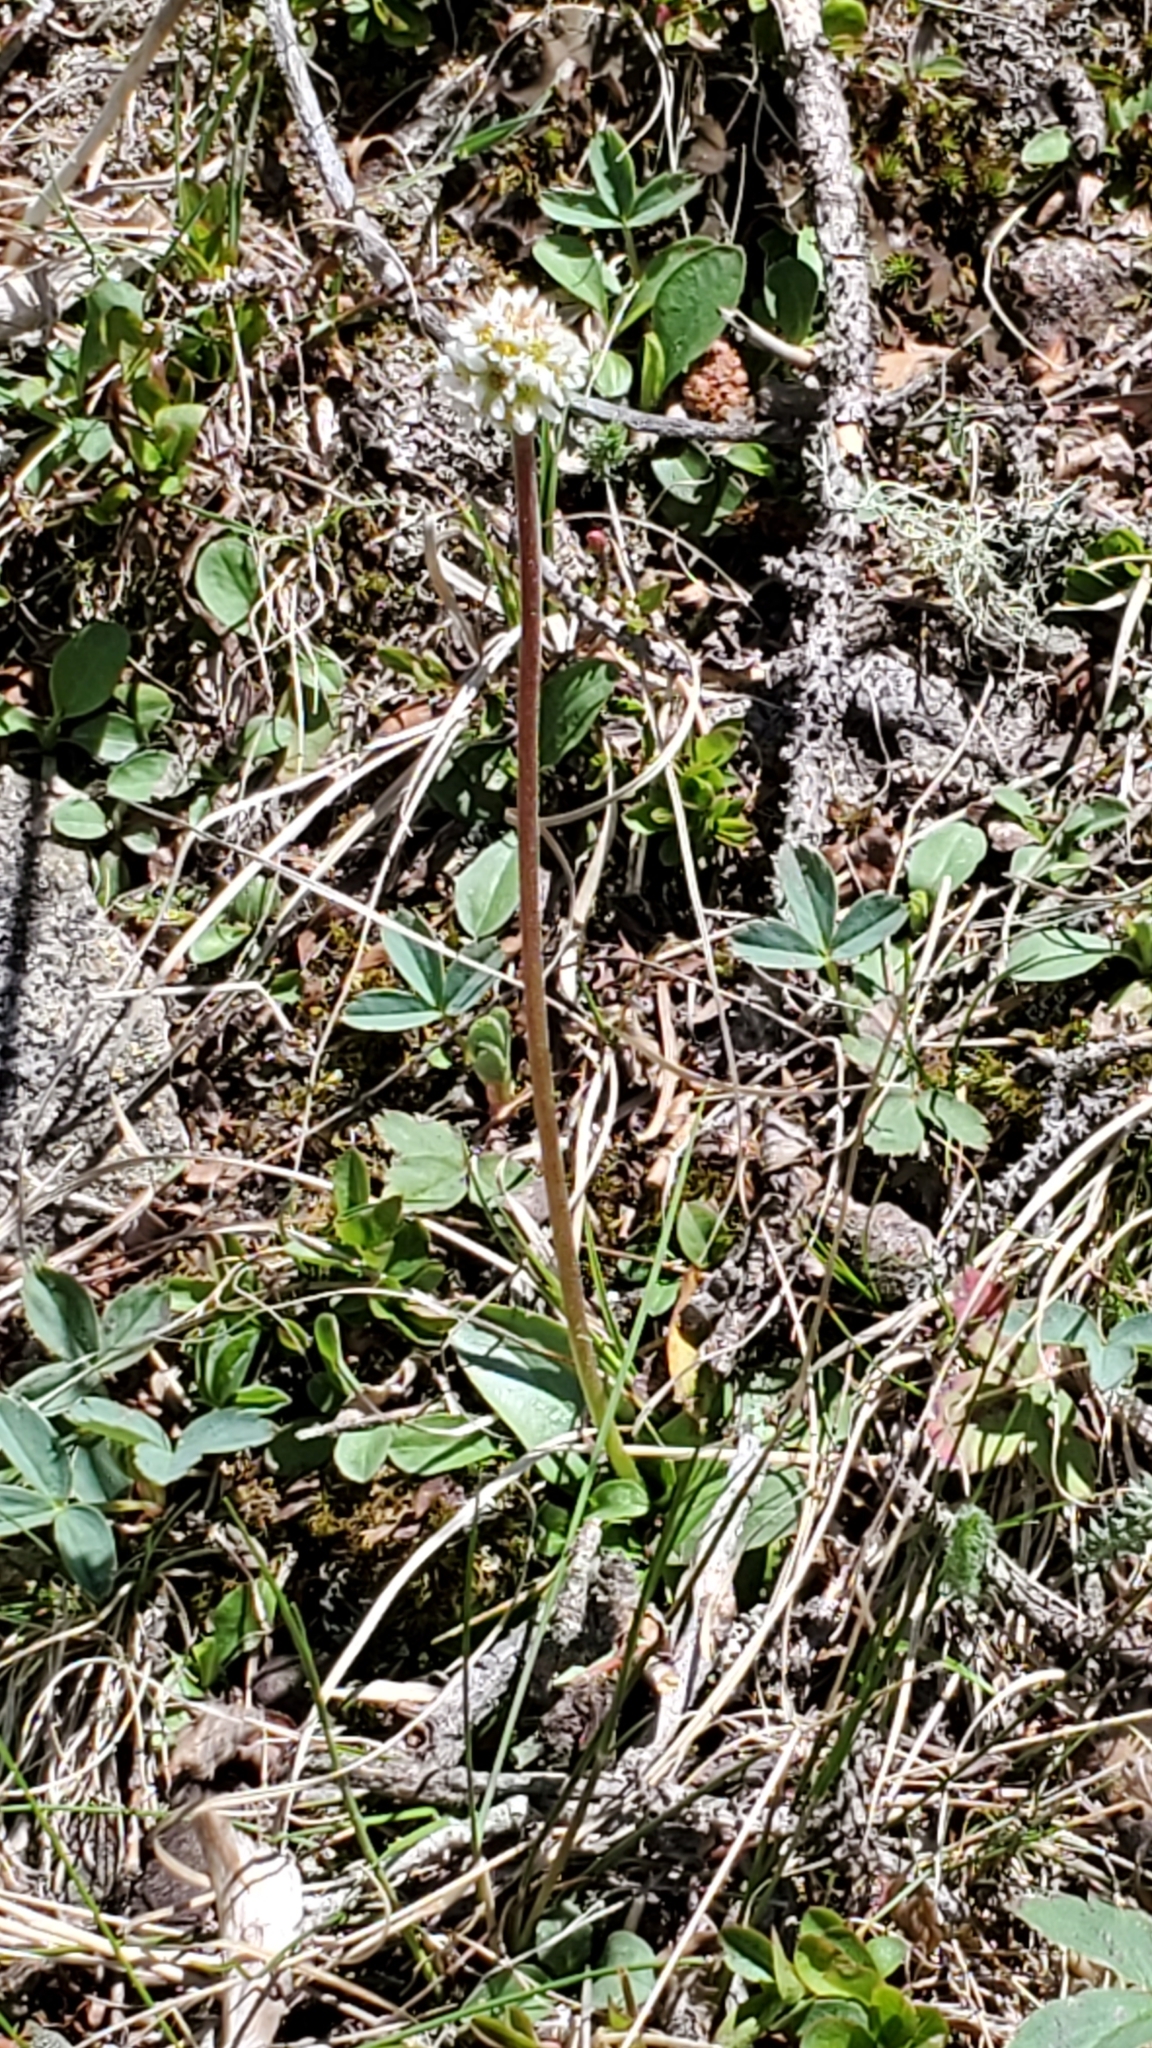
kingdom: Plantae
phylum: Tracheophyta
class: Magnoliopsida
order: Saxifragales
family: Saxifragaceae
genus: Micranthes
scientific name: Micranthes rhomboidea
